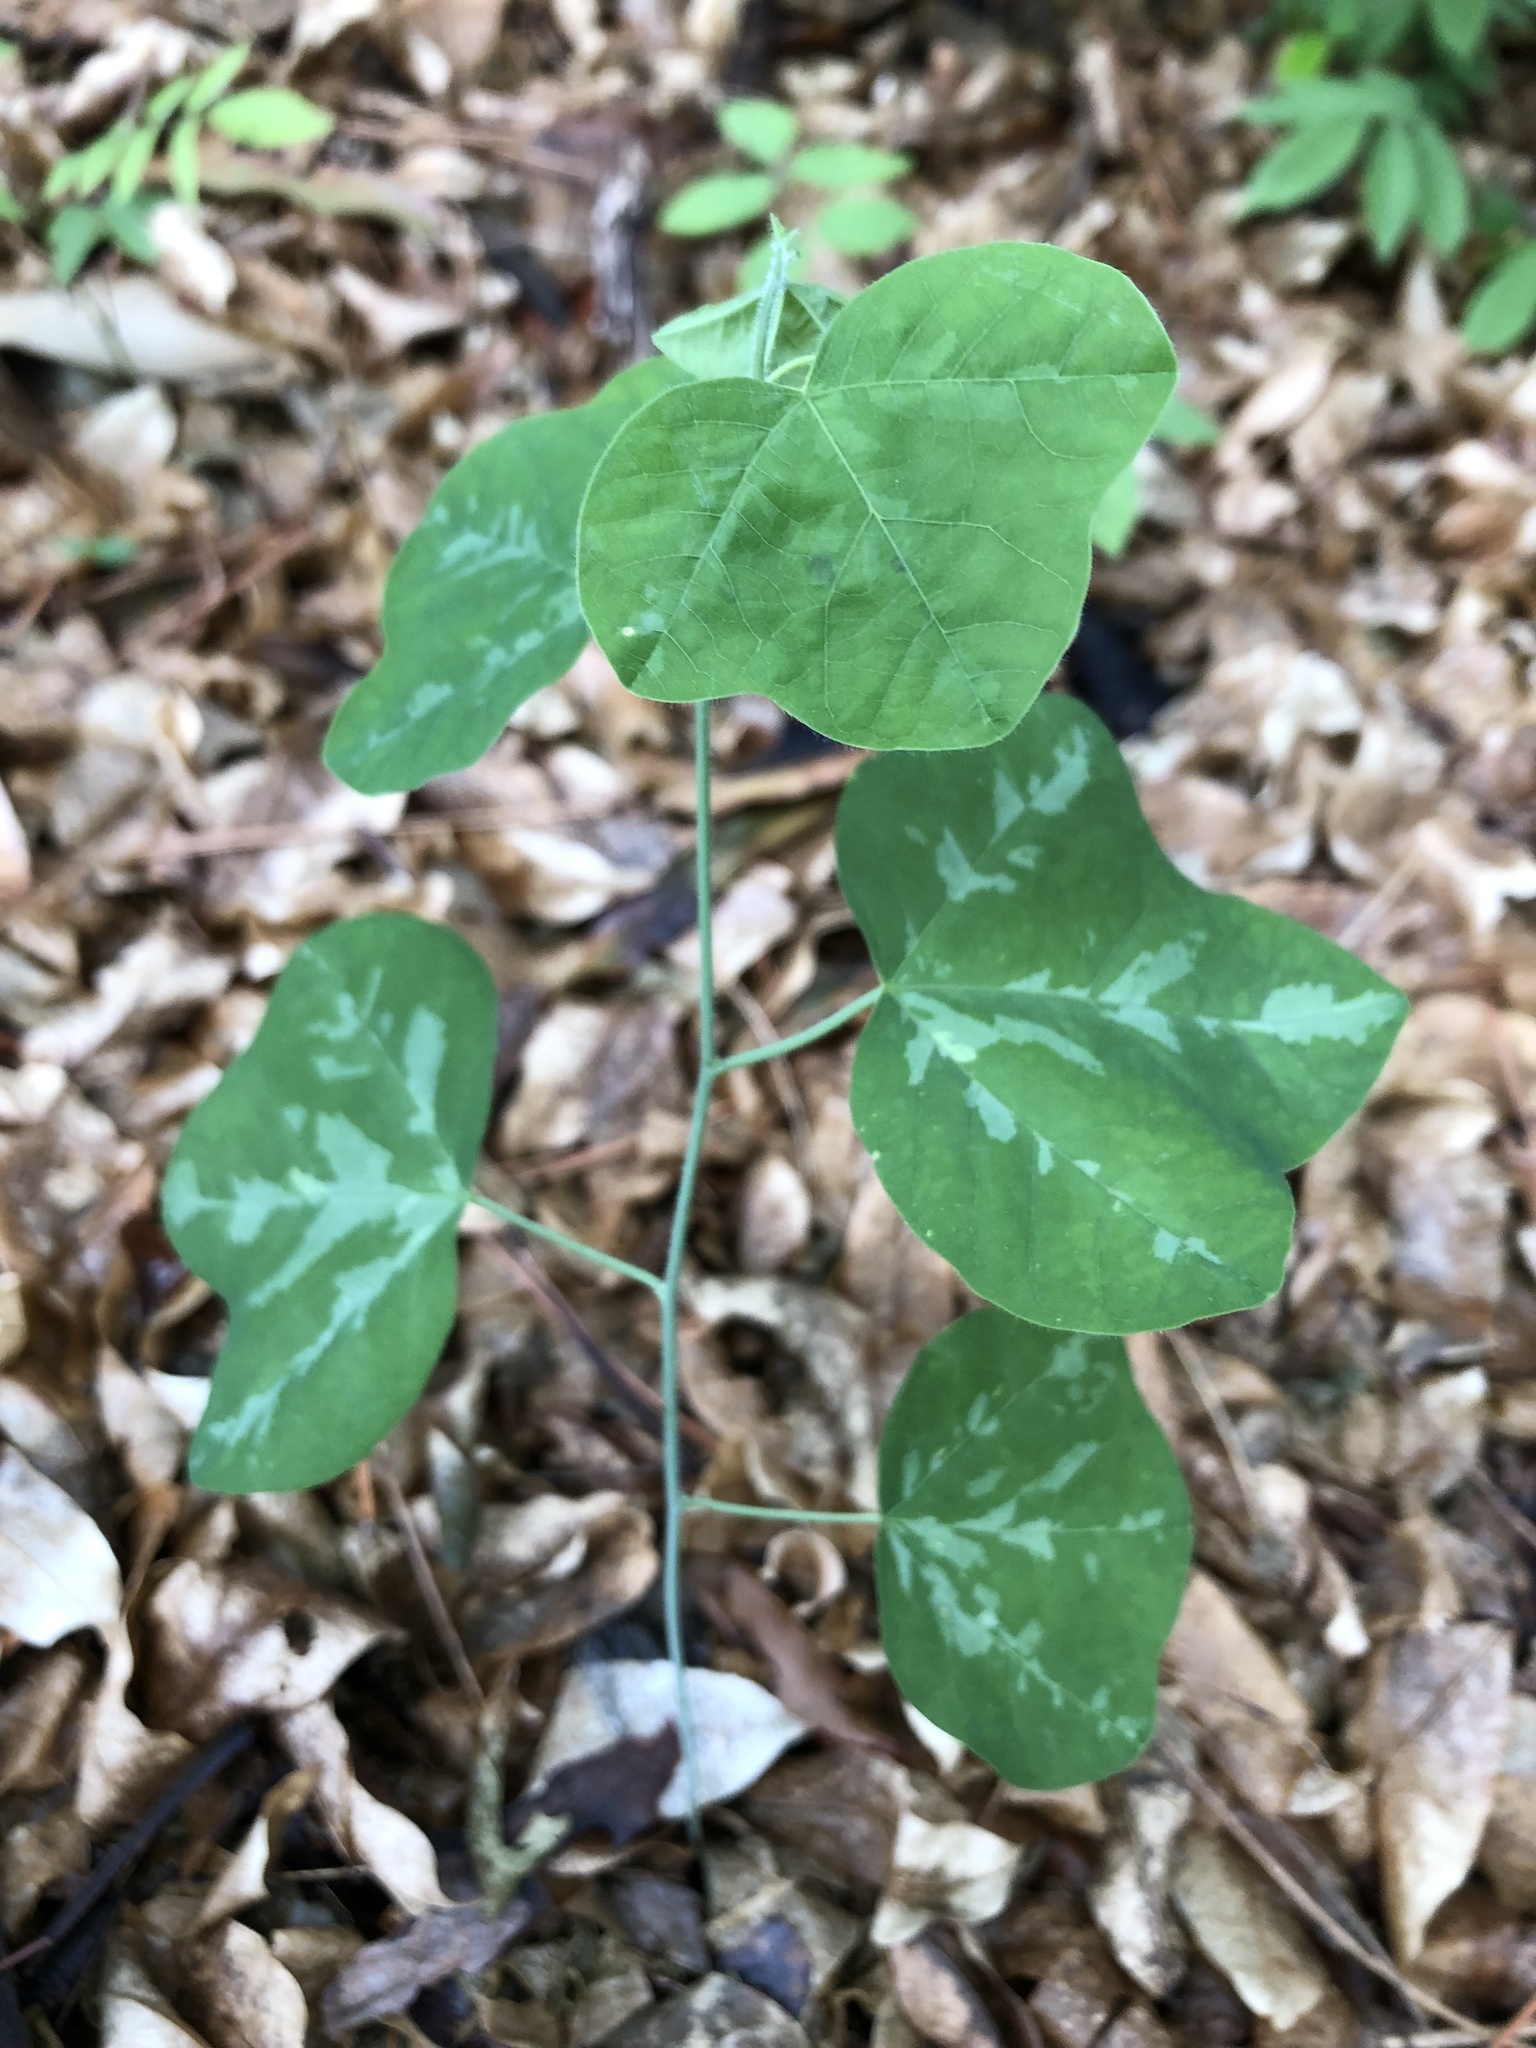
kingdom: Plantae
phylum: Tracheophyta
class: Magnoliopsida
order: Malpighiales
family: Passifloraceae
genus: Passiflora
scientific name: Passiflora lutea
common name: Yellow passionflower
